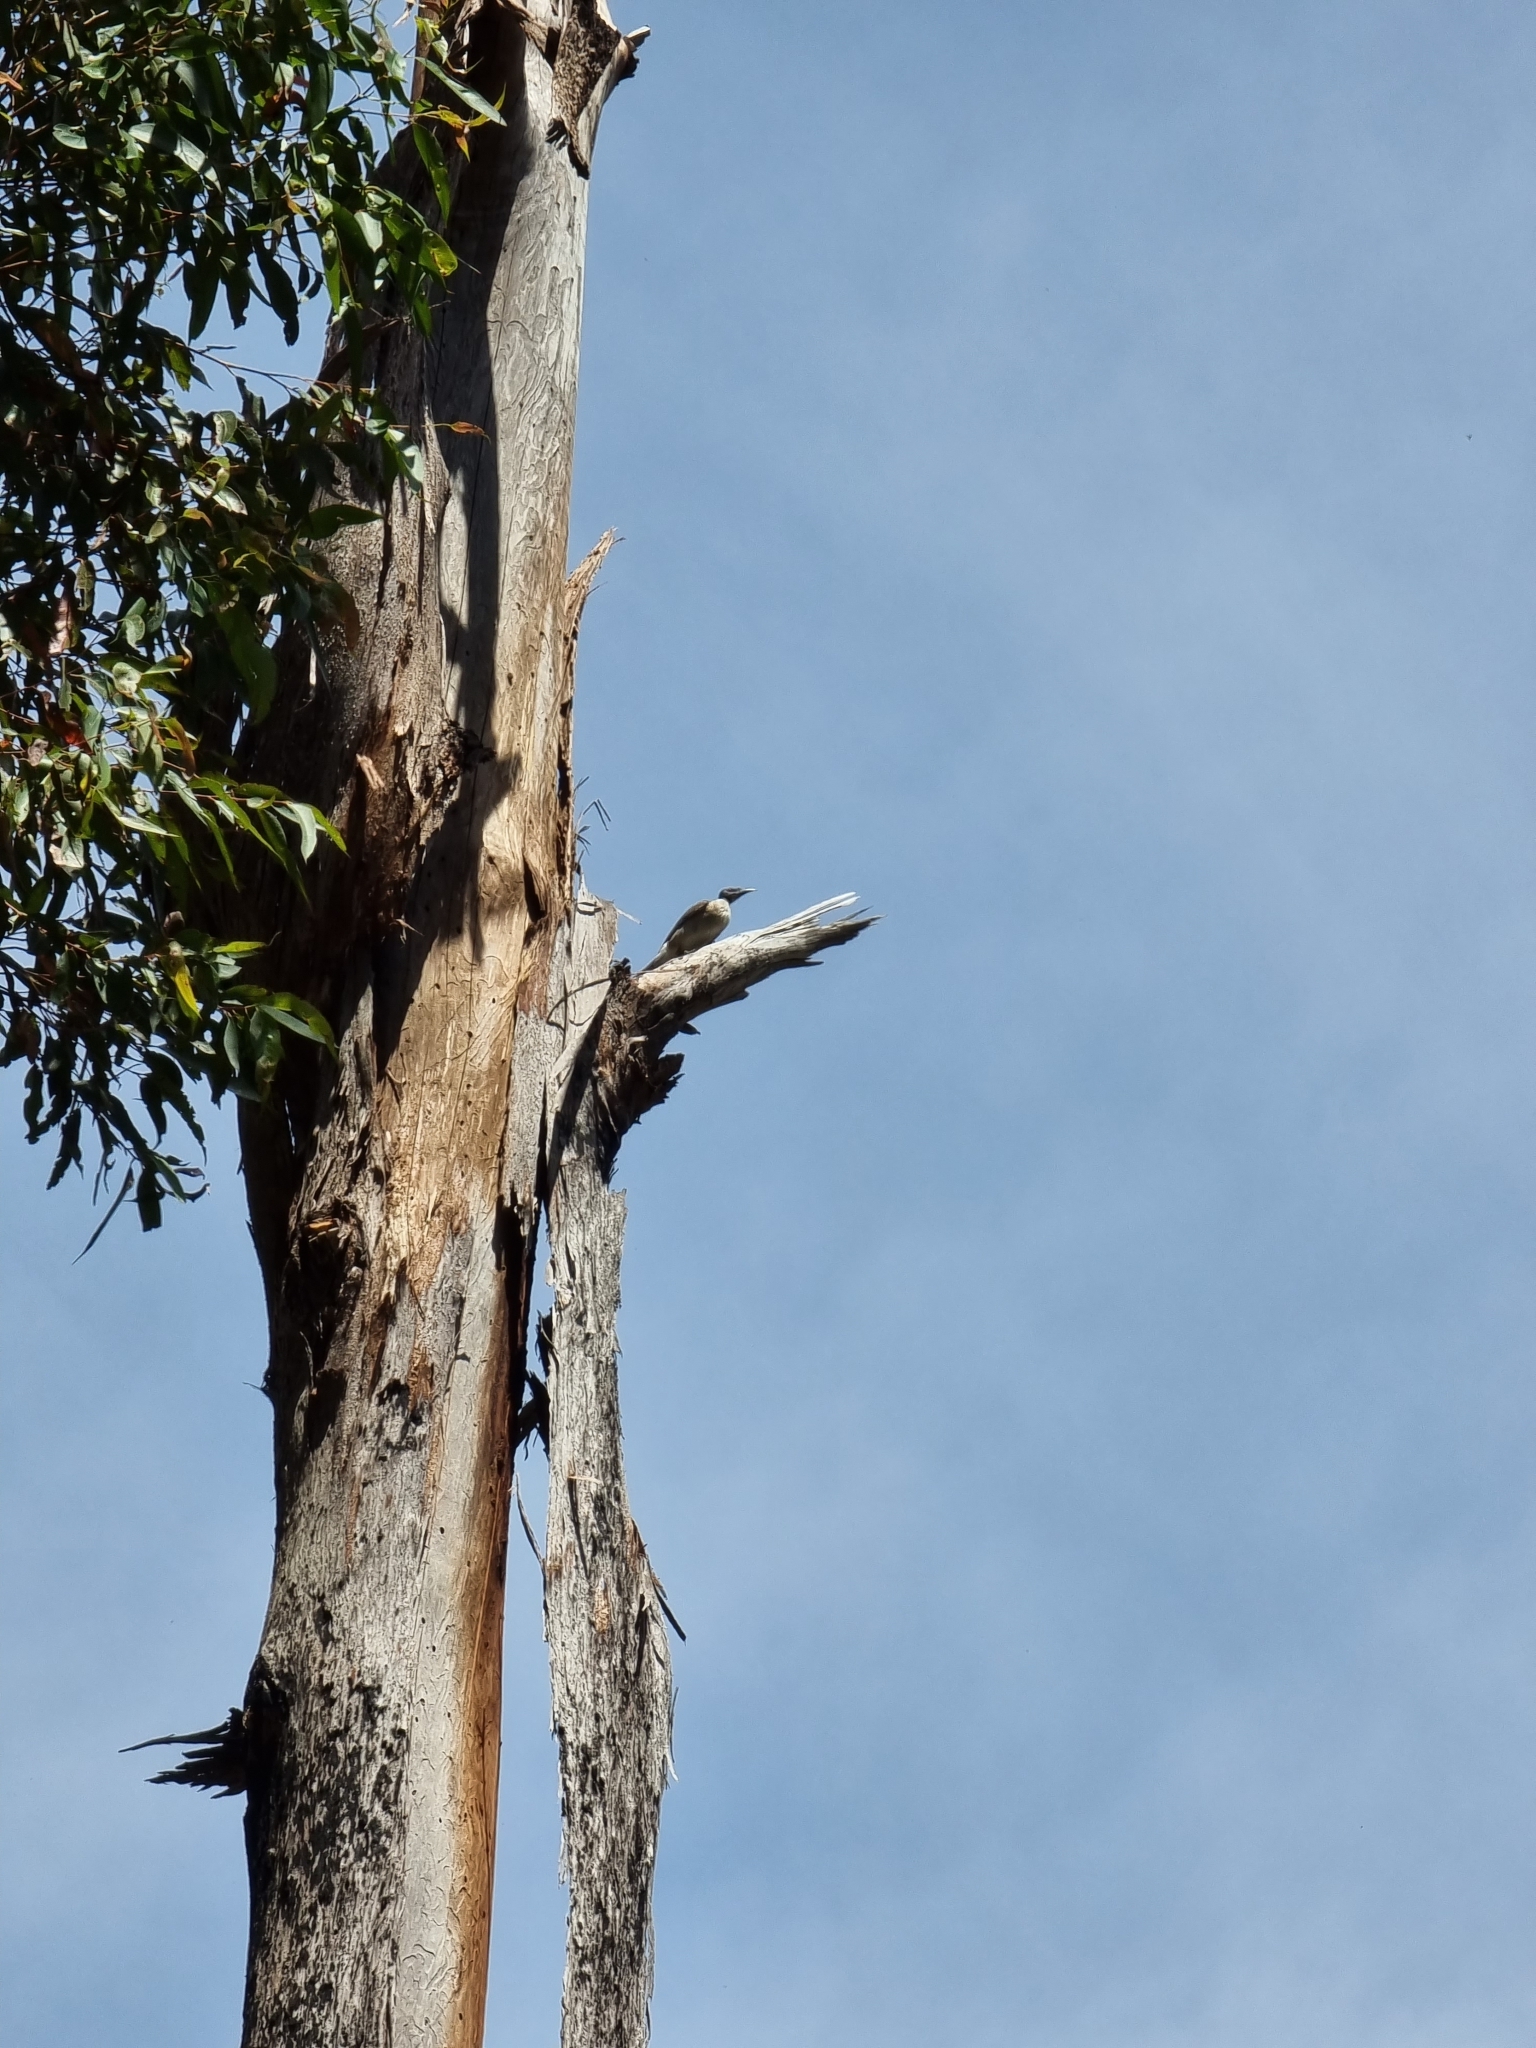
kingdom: Animalia
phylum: Chordata
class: Aves
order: Passeriformes
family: Meliphagidae
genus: Philemon
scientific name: Philemon corniculatus
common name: Noisy friarbird
